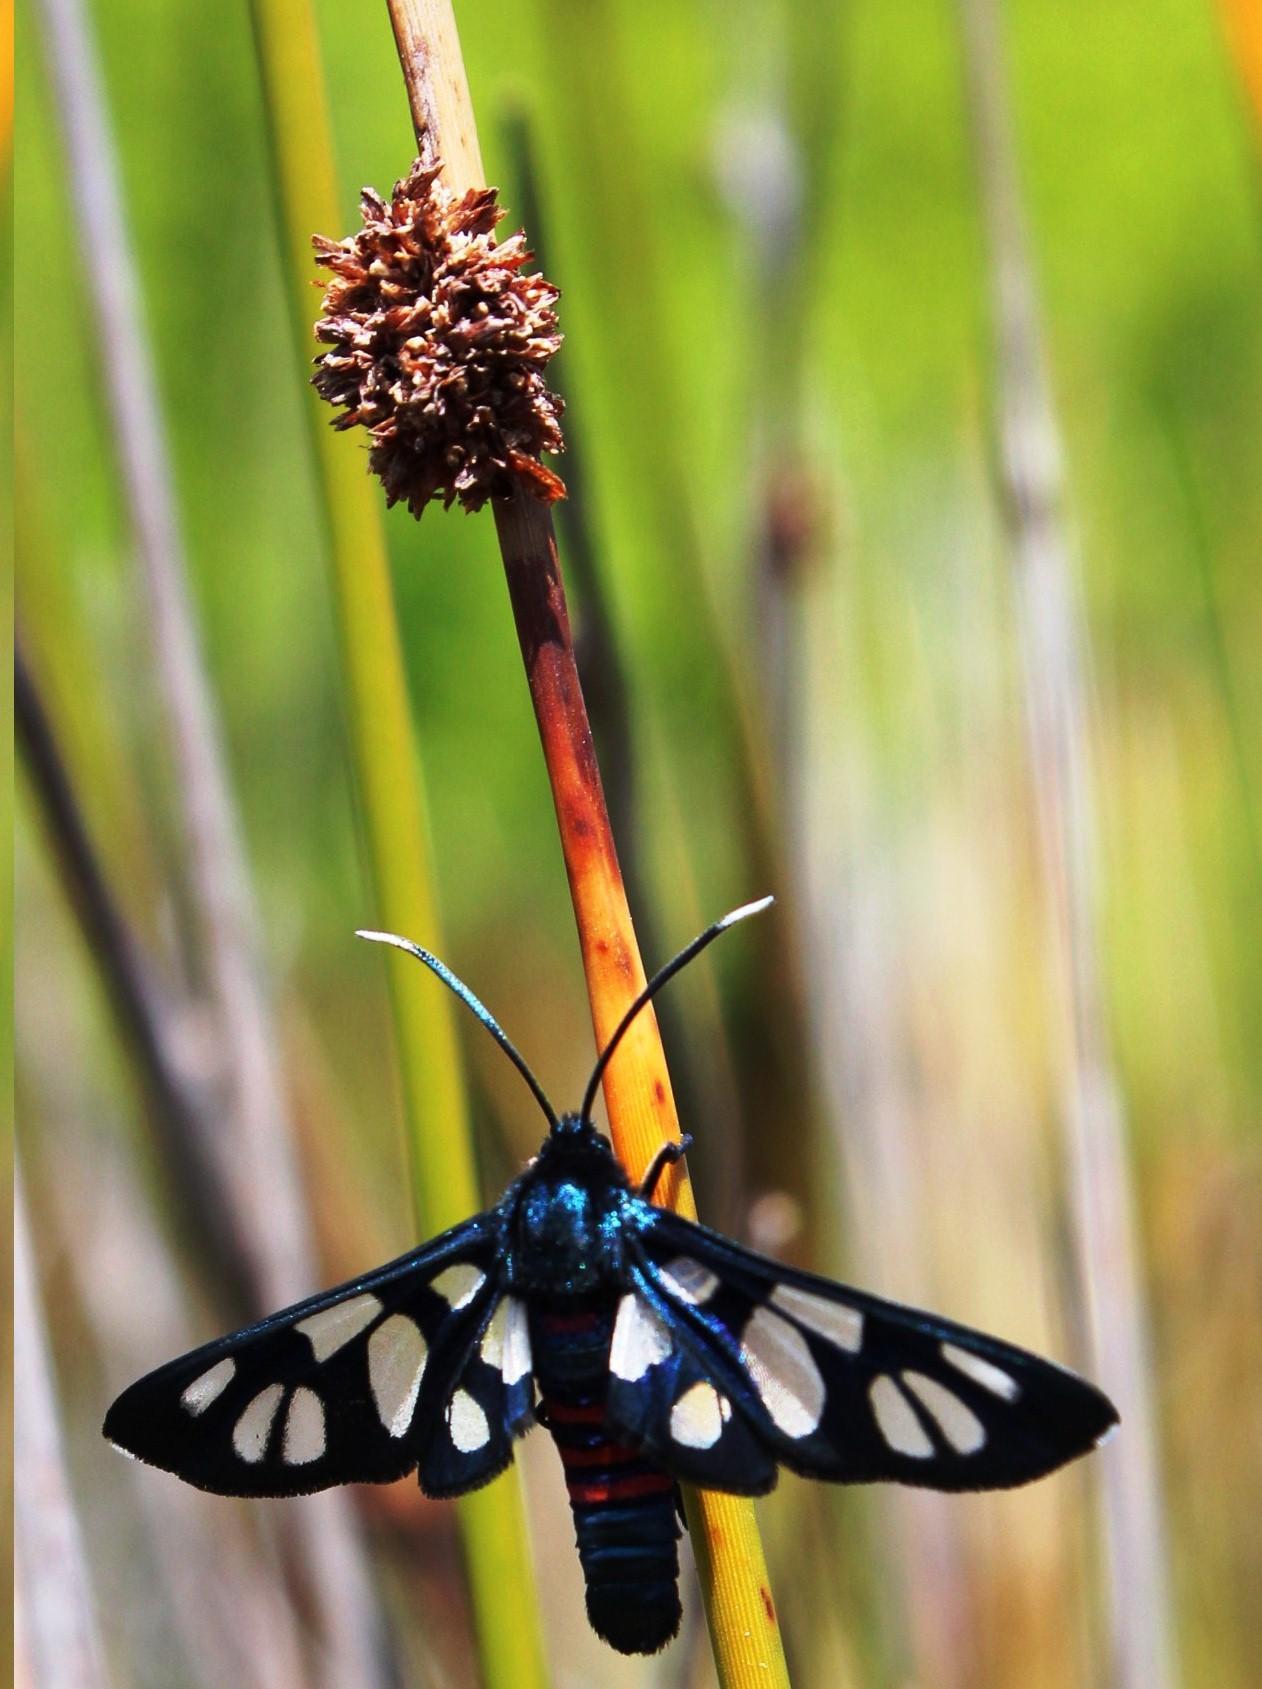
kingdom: Animalia
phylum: Arthropoda
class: Insecta
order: Lepidoptera
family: Erebidae
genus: Amata
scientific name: Amata cerbera
